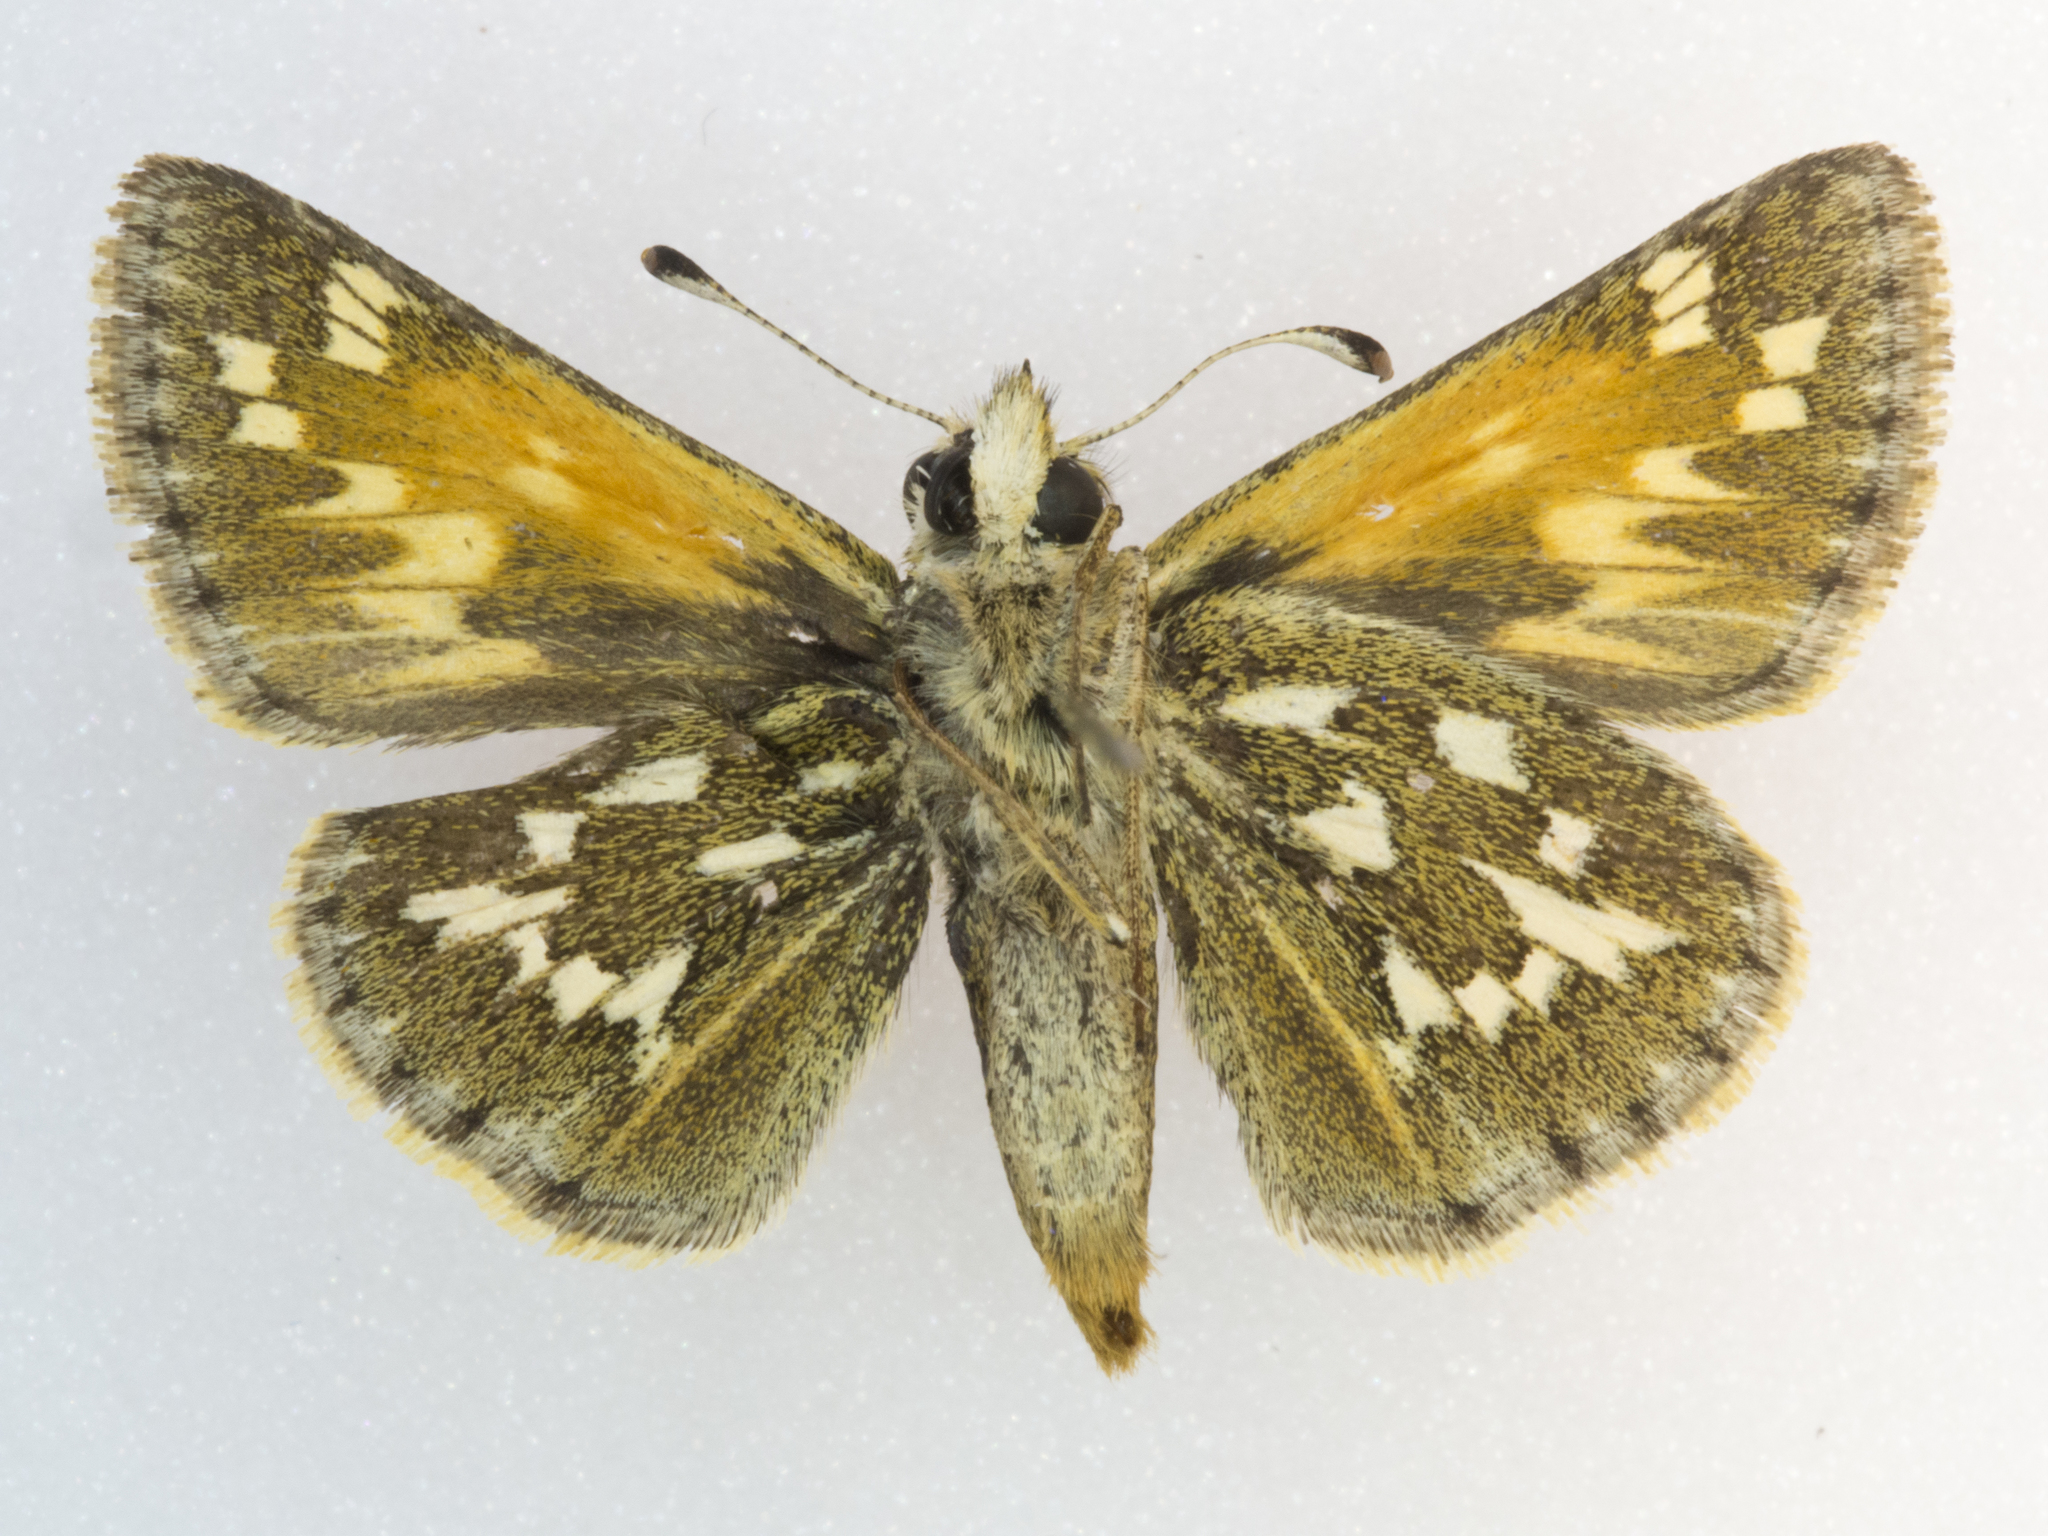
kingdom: Animalia
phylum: Arthropoda
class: Insecta
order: Lepidoptera
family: Hesperiidae
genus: Polites
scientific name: Polites sabuleti
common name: Sandhill skipper
